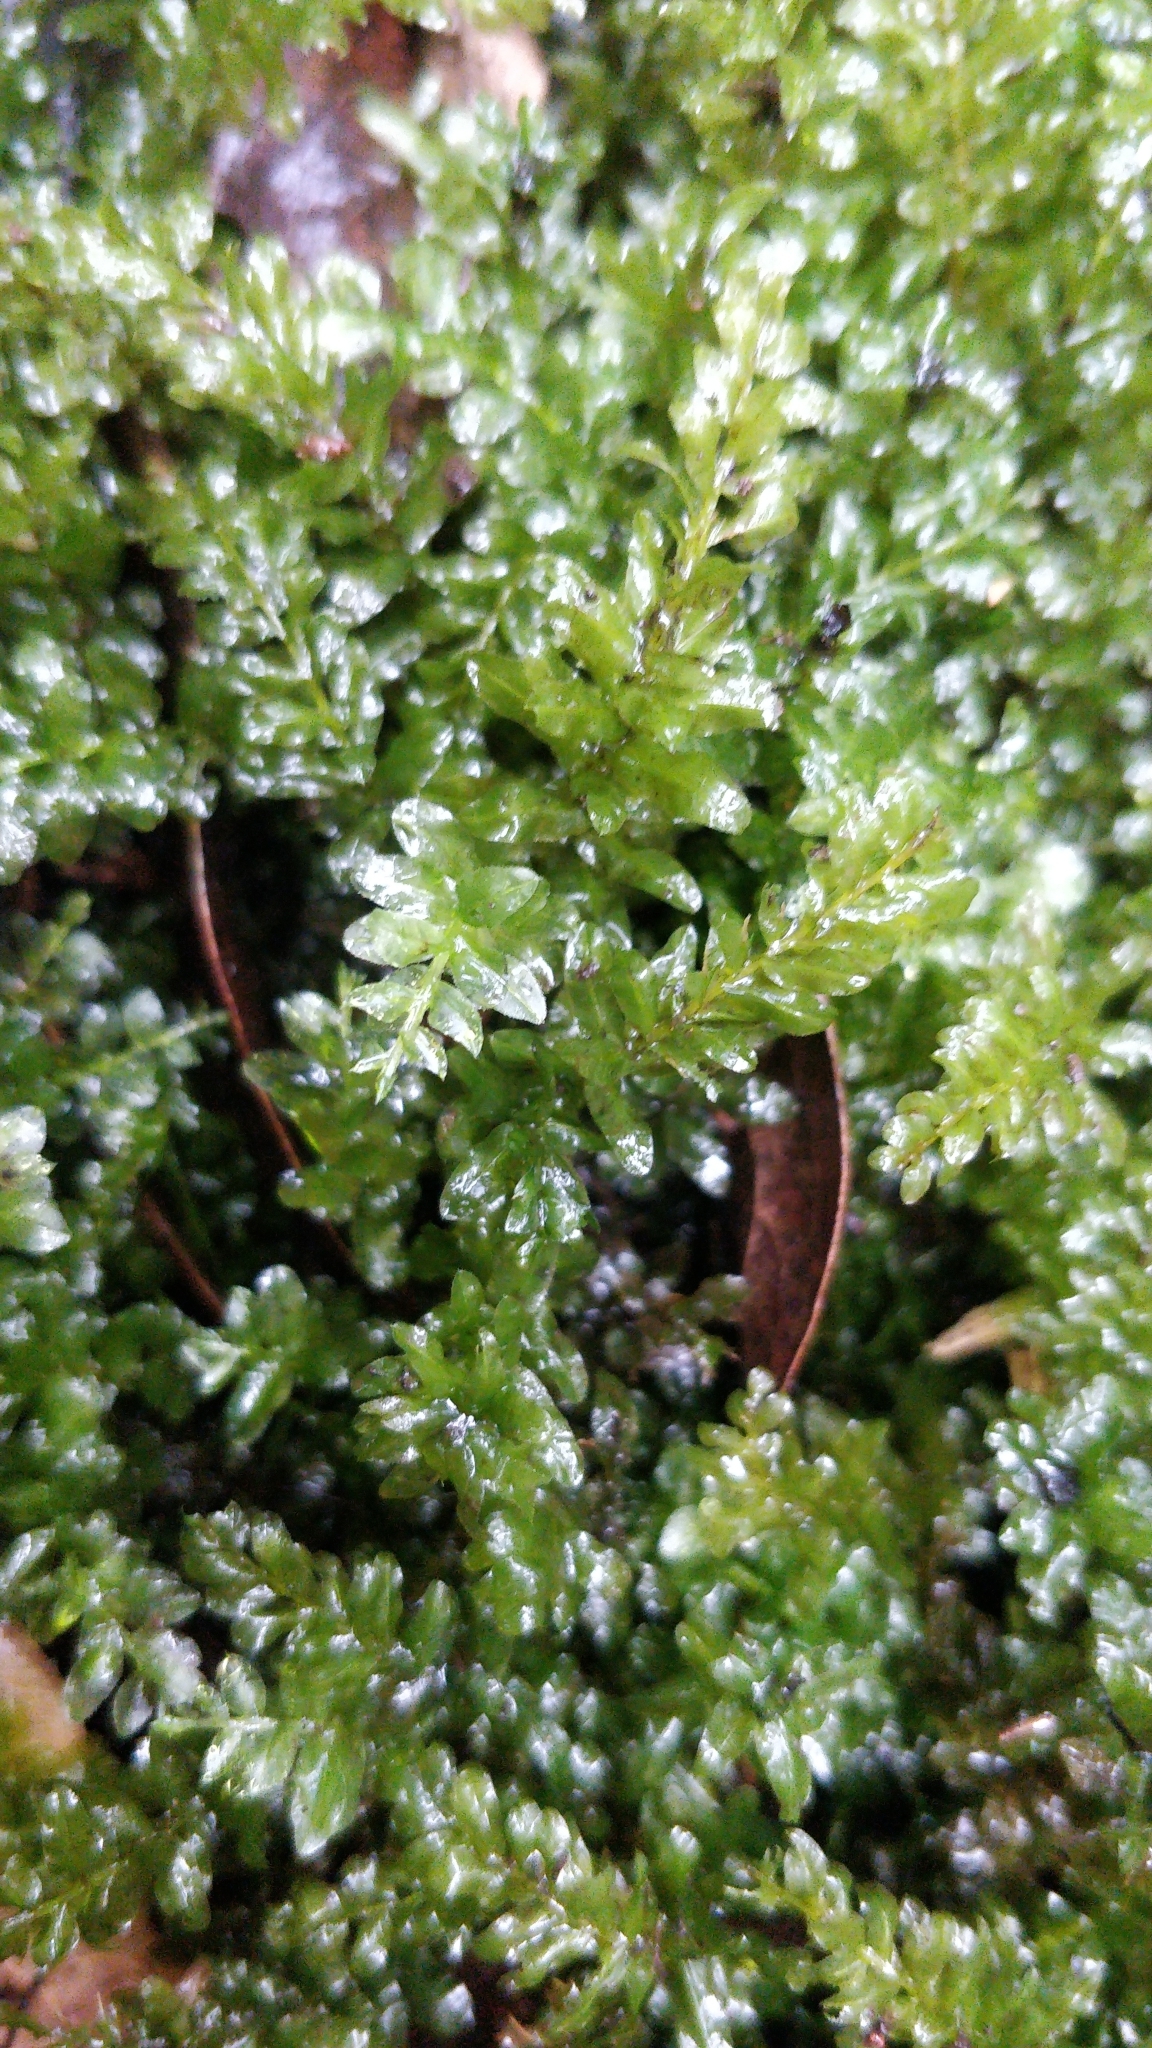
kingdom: Plantae
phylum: Bryophyta
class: Bryopsida
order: Bryales
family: Mniaceae
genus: Plagiomnium
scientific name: Plagiomnium undulatum
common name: Hart's-tongue thyme-moss
